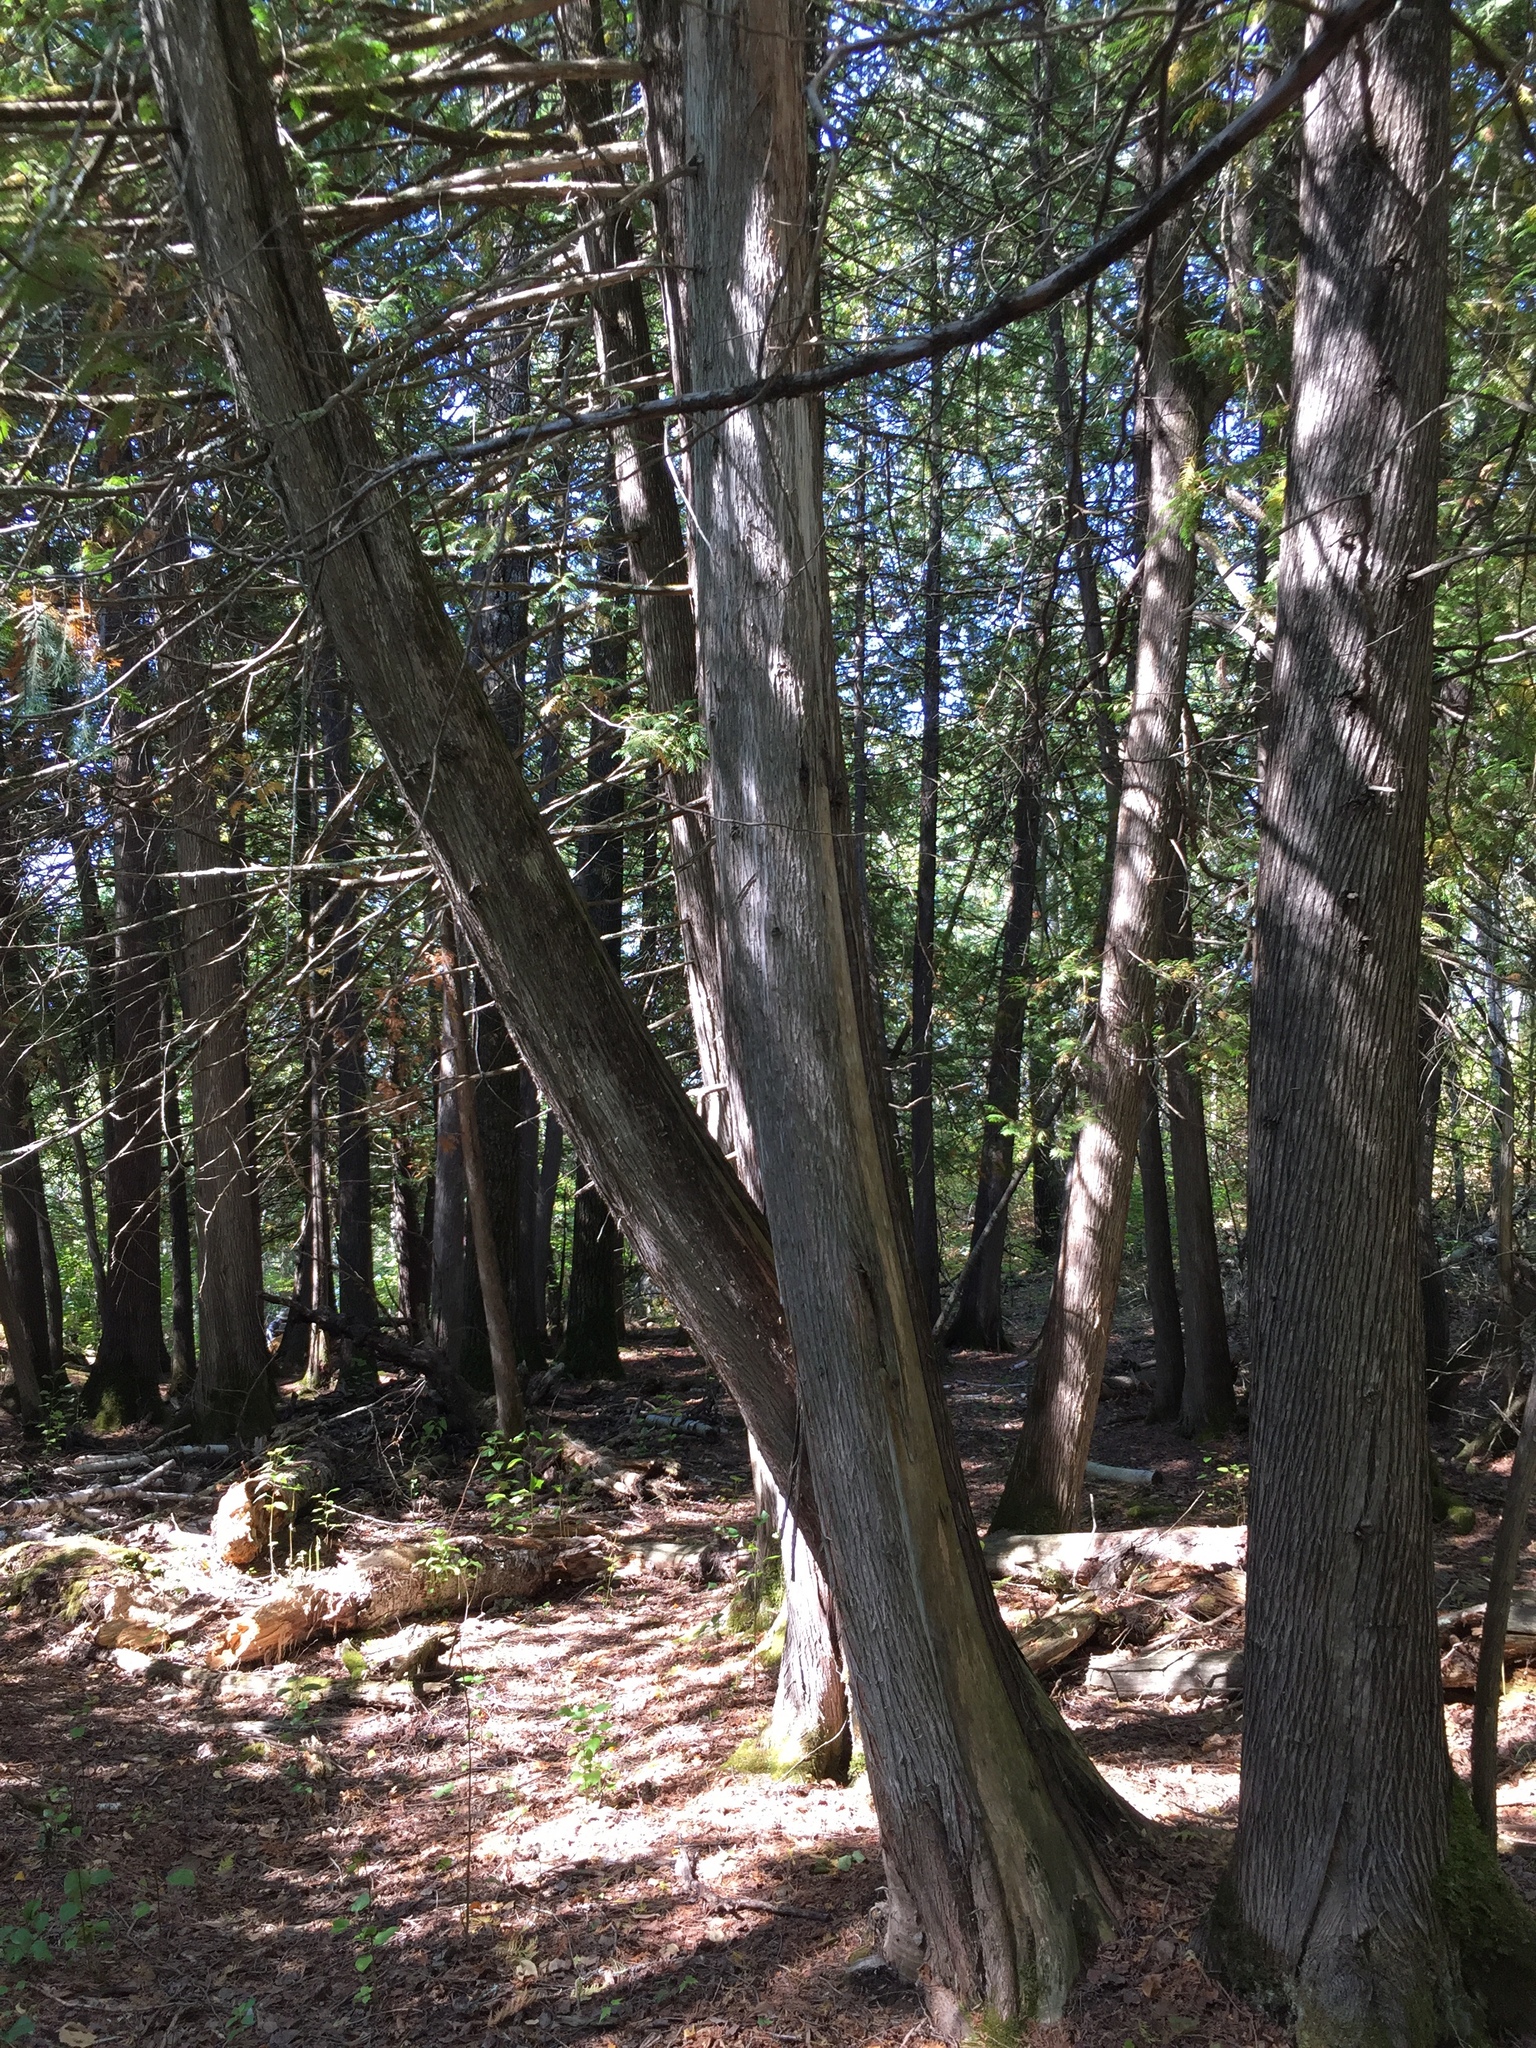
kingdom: Plantae
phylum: Tracheophyta
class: Pinopsida
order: Pinales
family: Cupressaceae
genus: Thuja
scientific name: Thuja occidentalis
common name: Northern white-cedar
